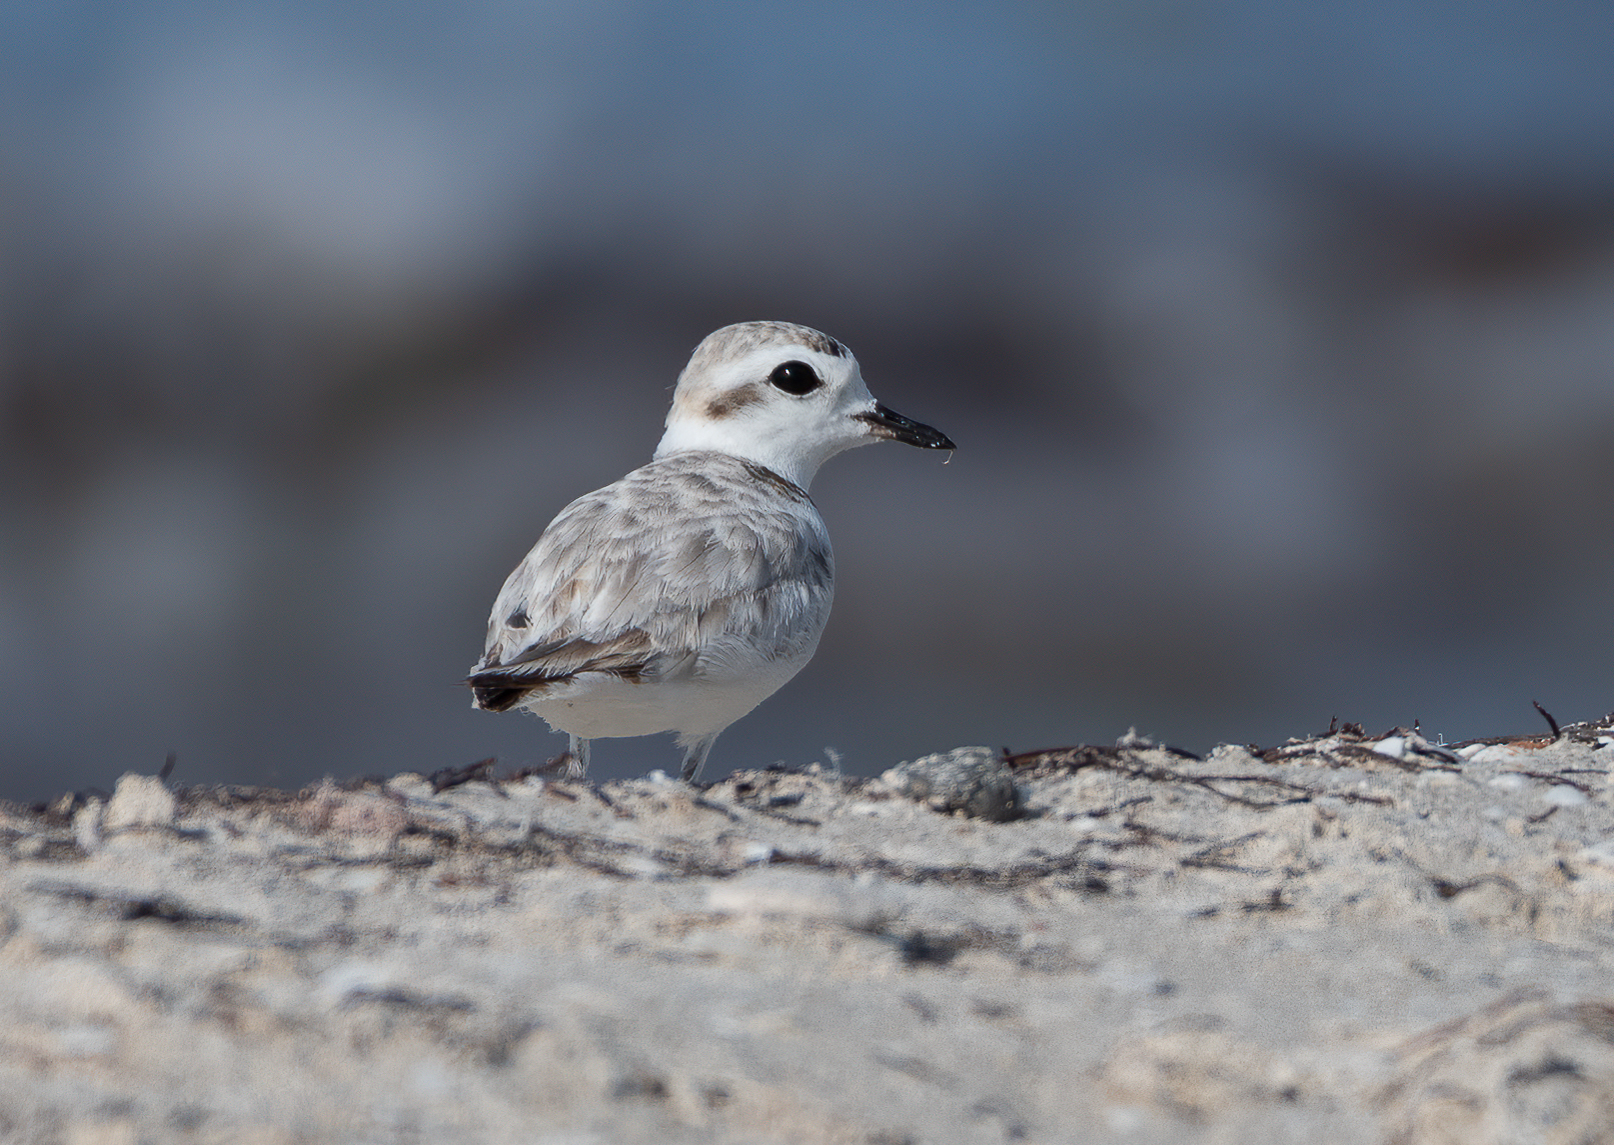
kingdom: Animalia
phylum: Chordata
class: Aves
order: Charadriiformes
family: Charadriidae
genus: Anarhynchus
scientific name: Anarhynchus
